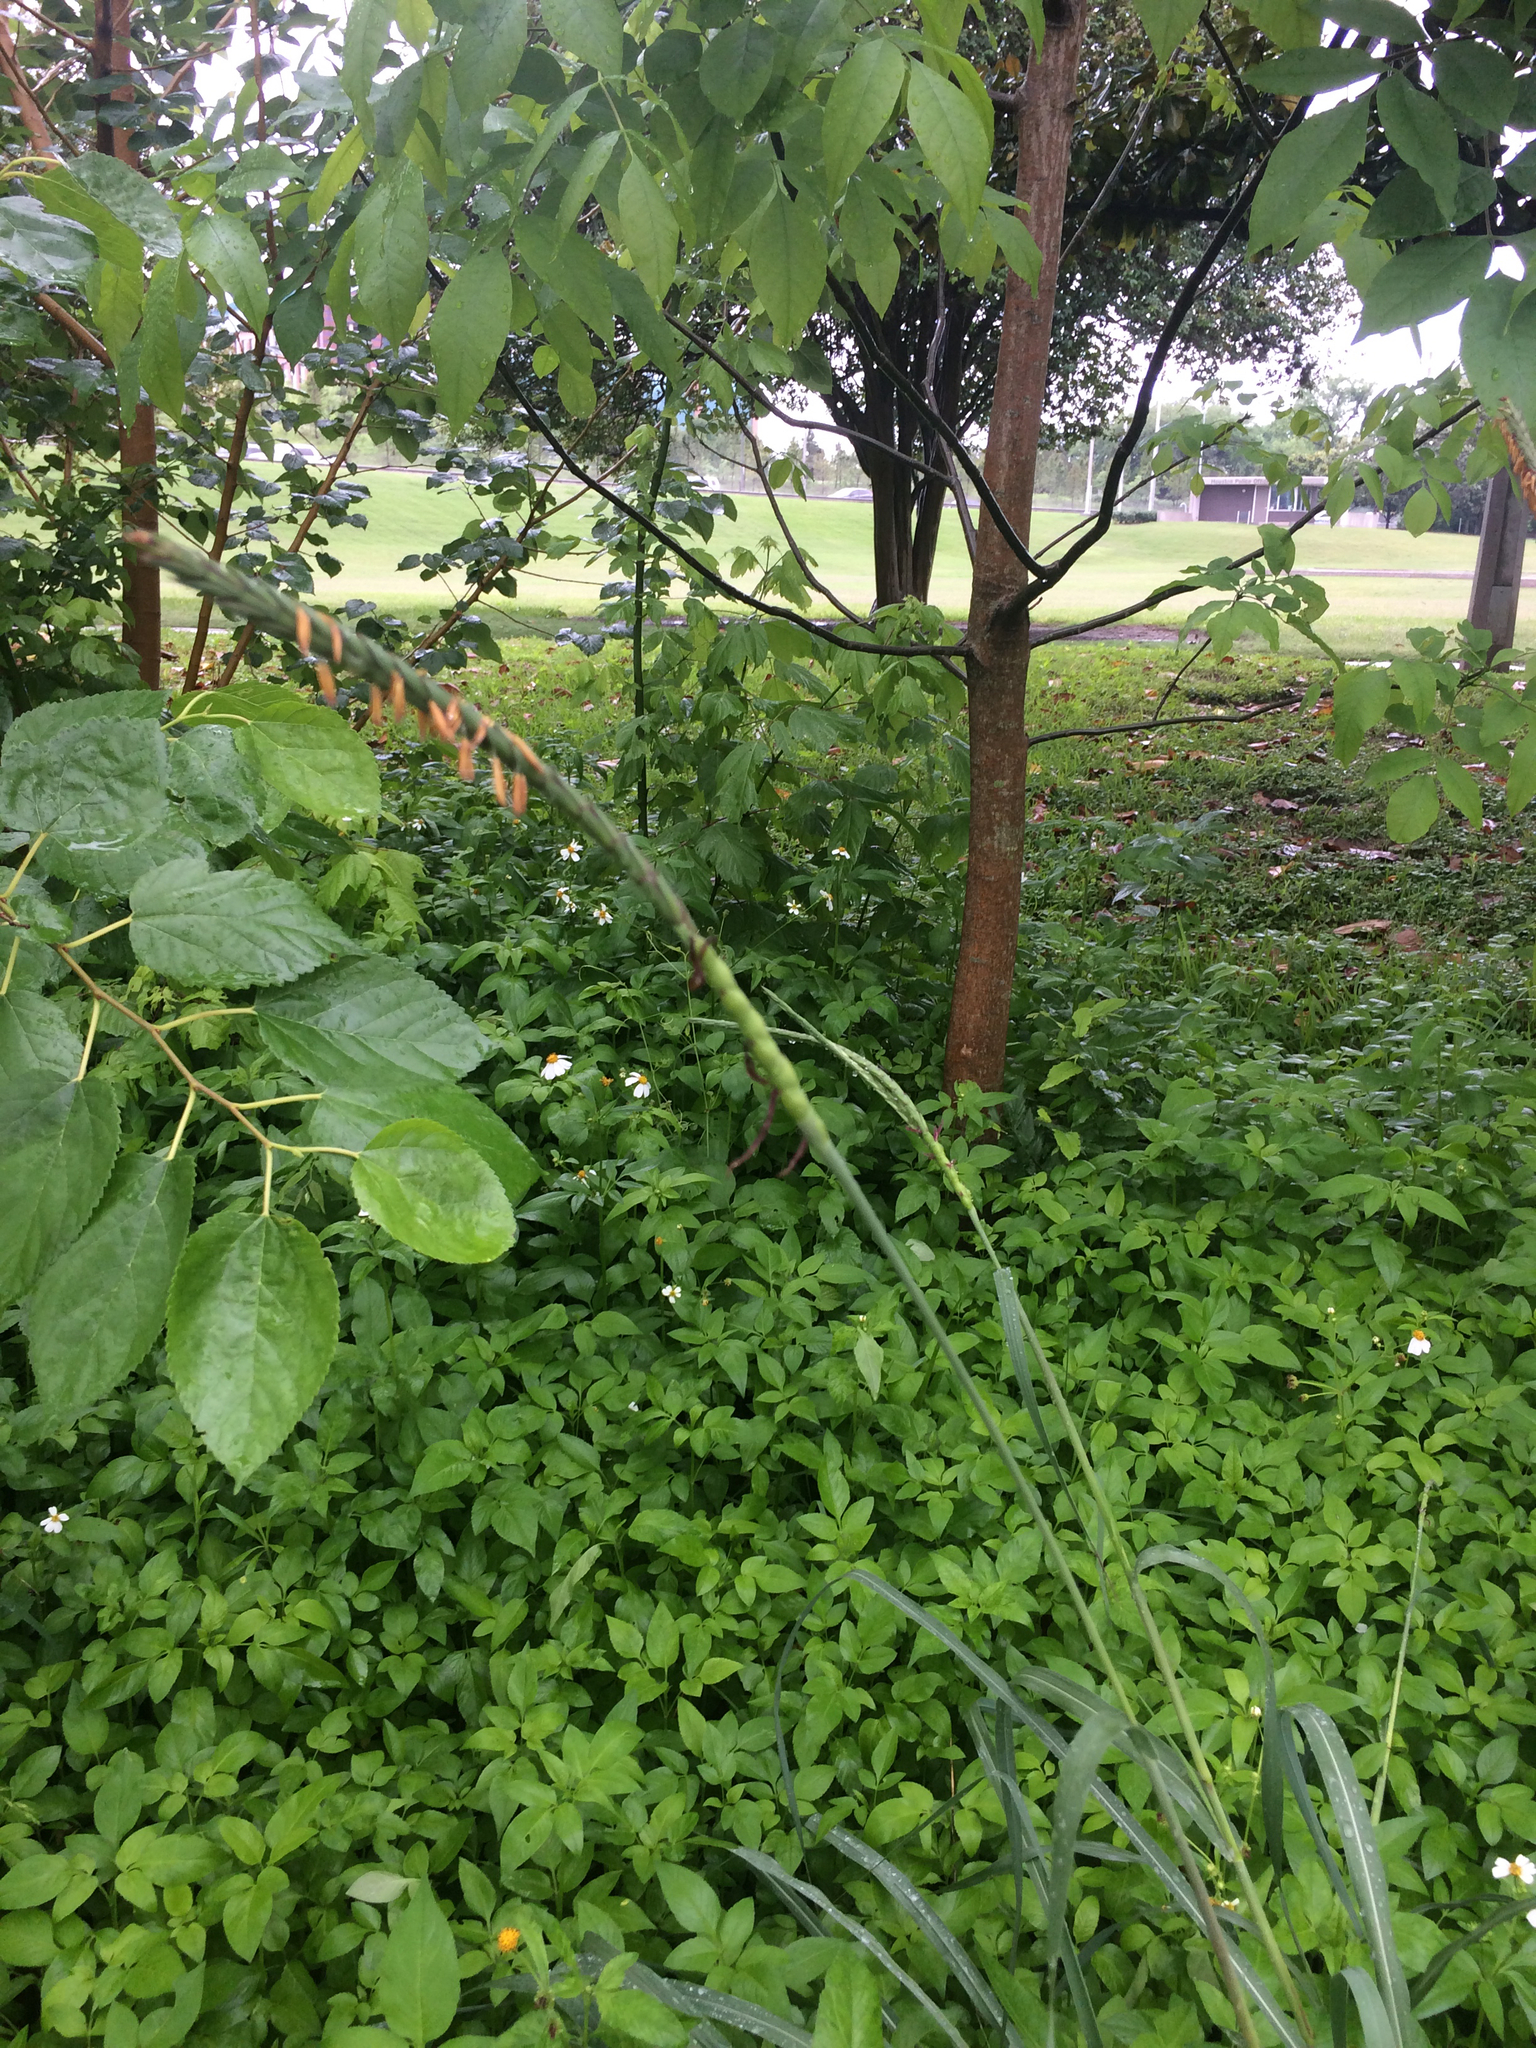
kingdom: Plantae
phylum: Tracheophyta
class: Liliopsida
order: Poales
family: Poaceae
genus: Tripsacum
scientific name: Tripsacum dactyloides
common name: Buffalo-grass
